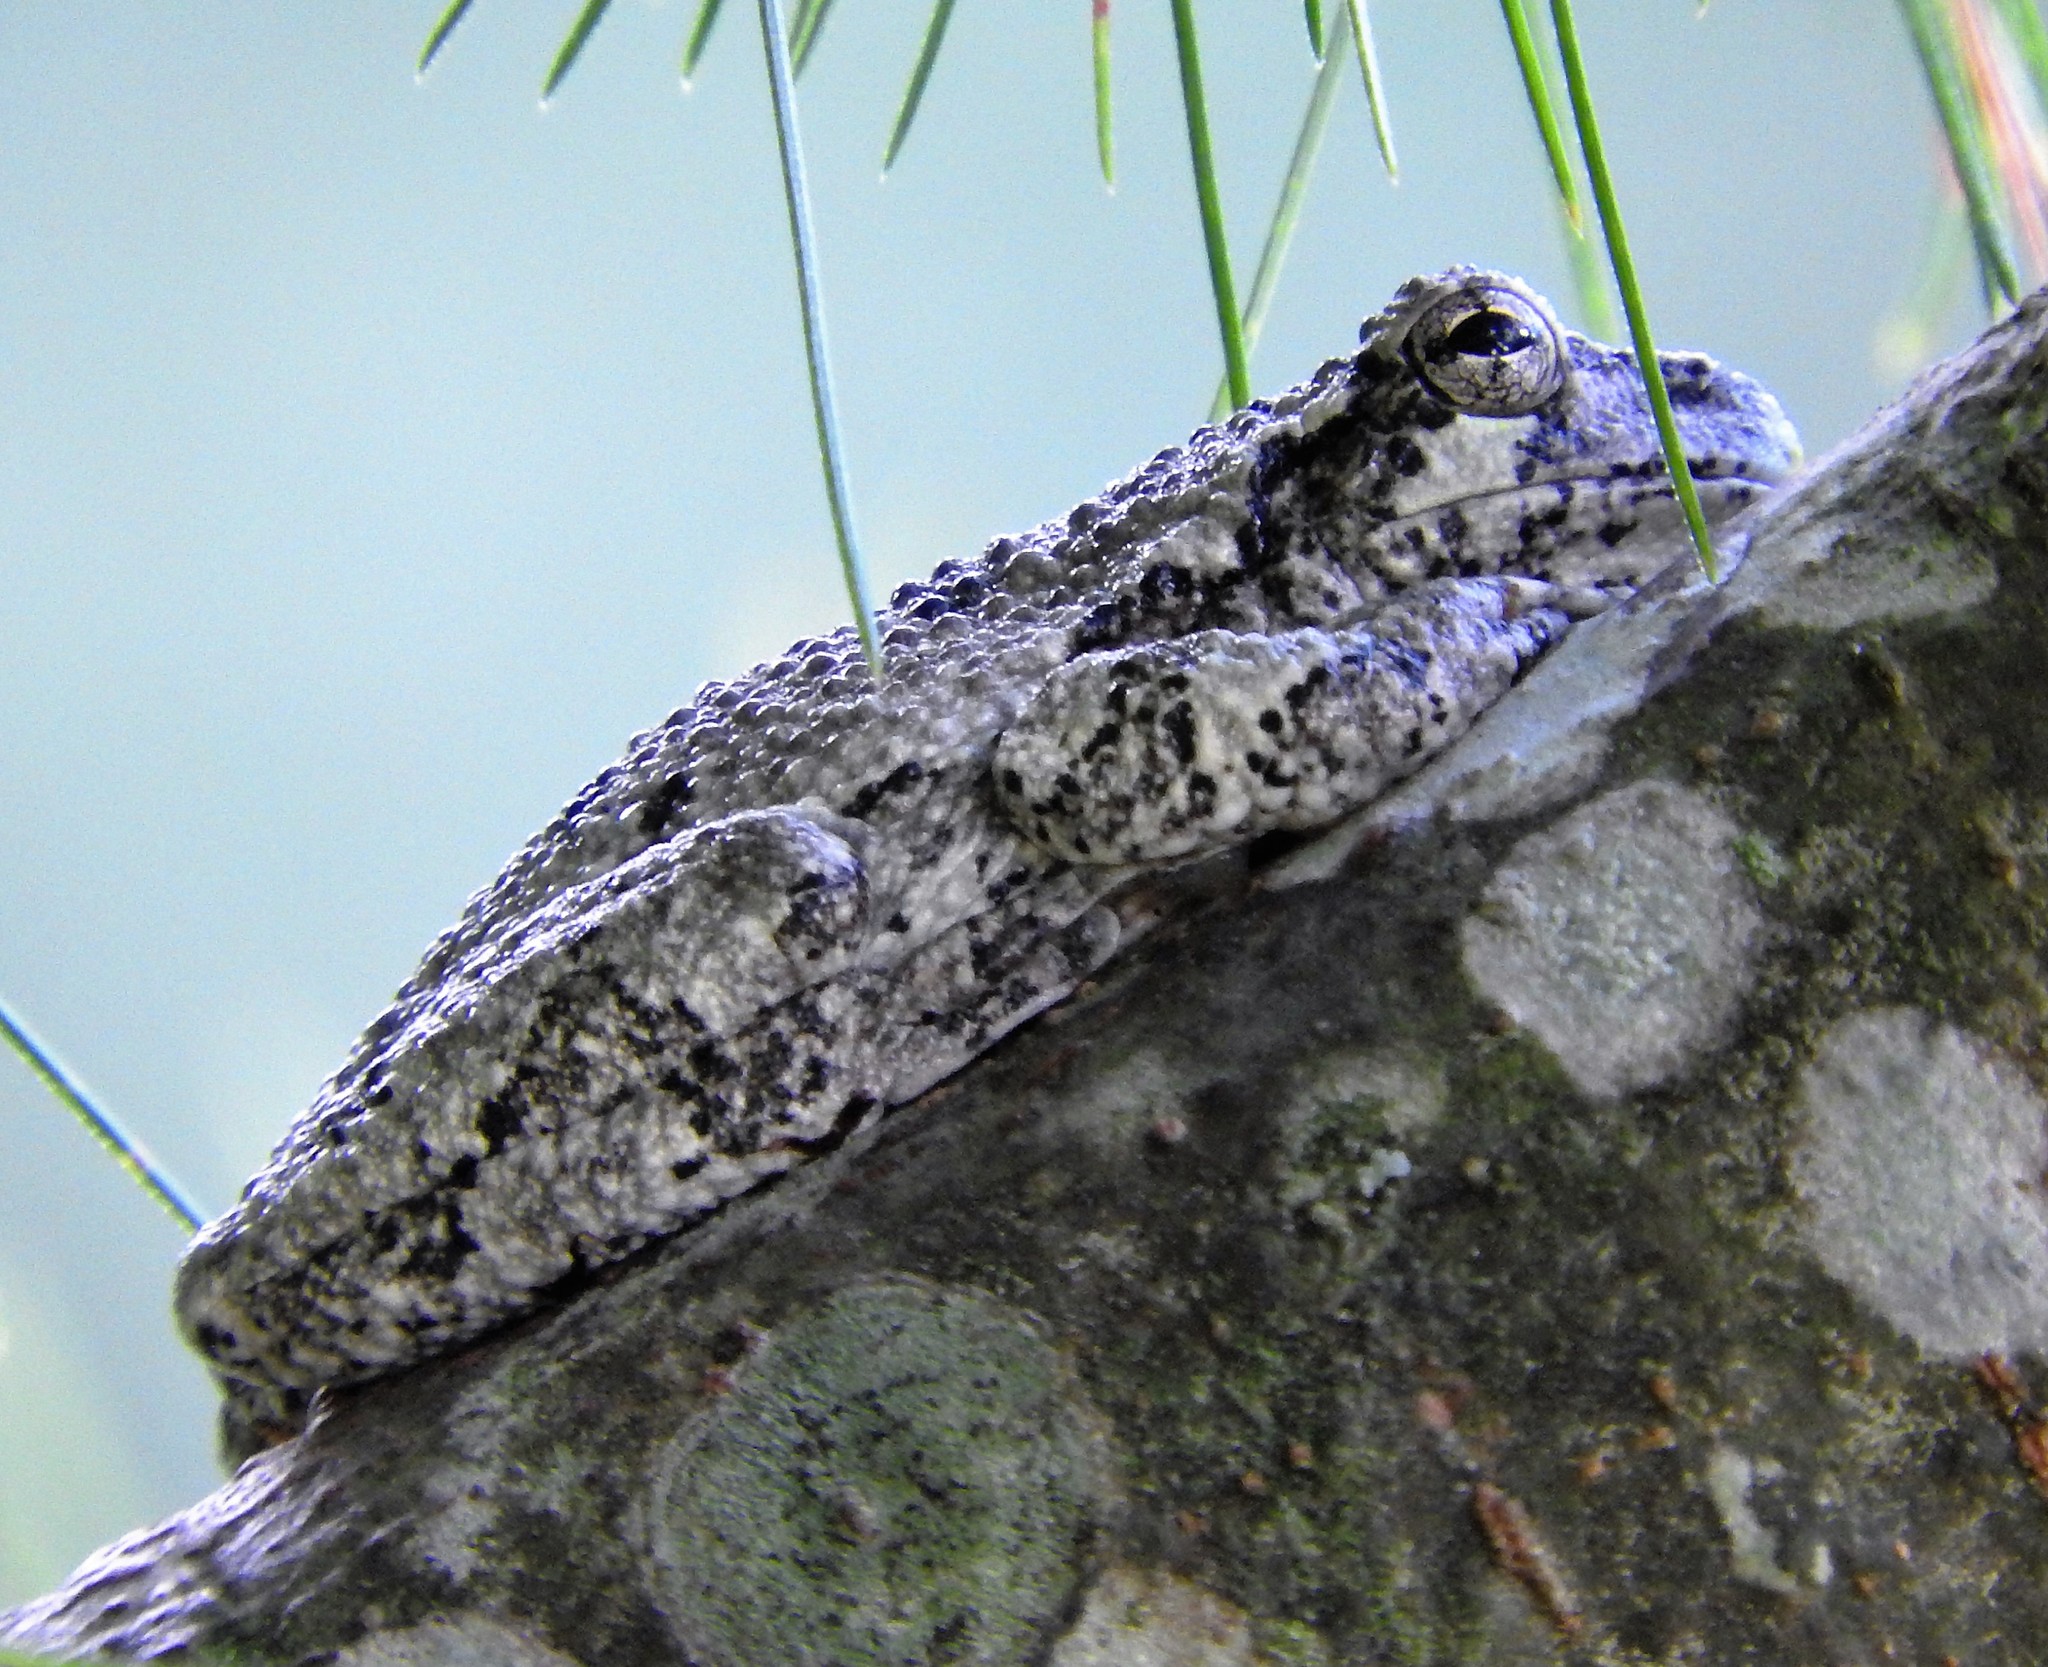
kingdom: Animalia
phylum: Chordata
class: Amphibia
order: Anura
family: Hylidae
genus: Dryophytes
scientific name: Dryophytes versicolor
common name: Gray treefrog
